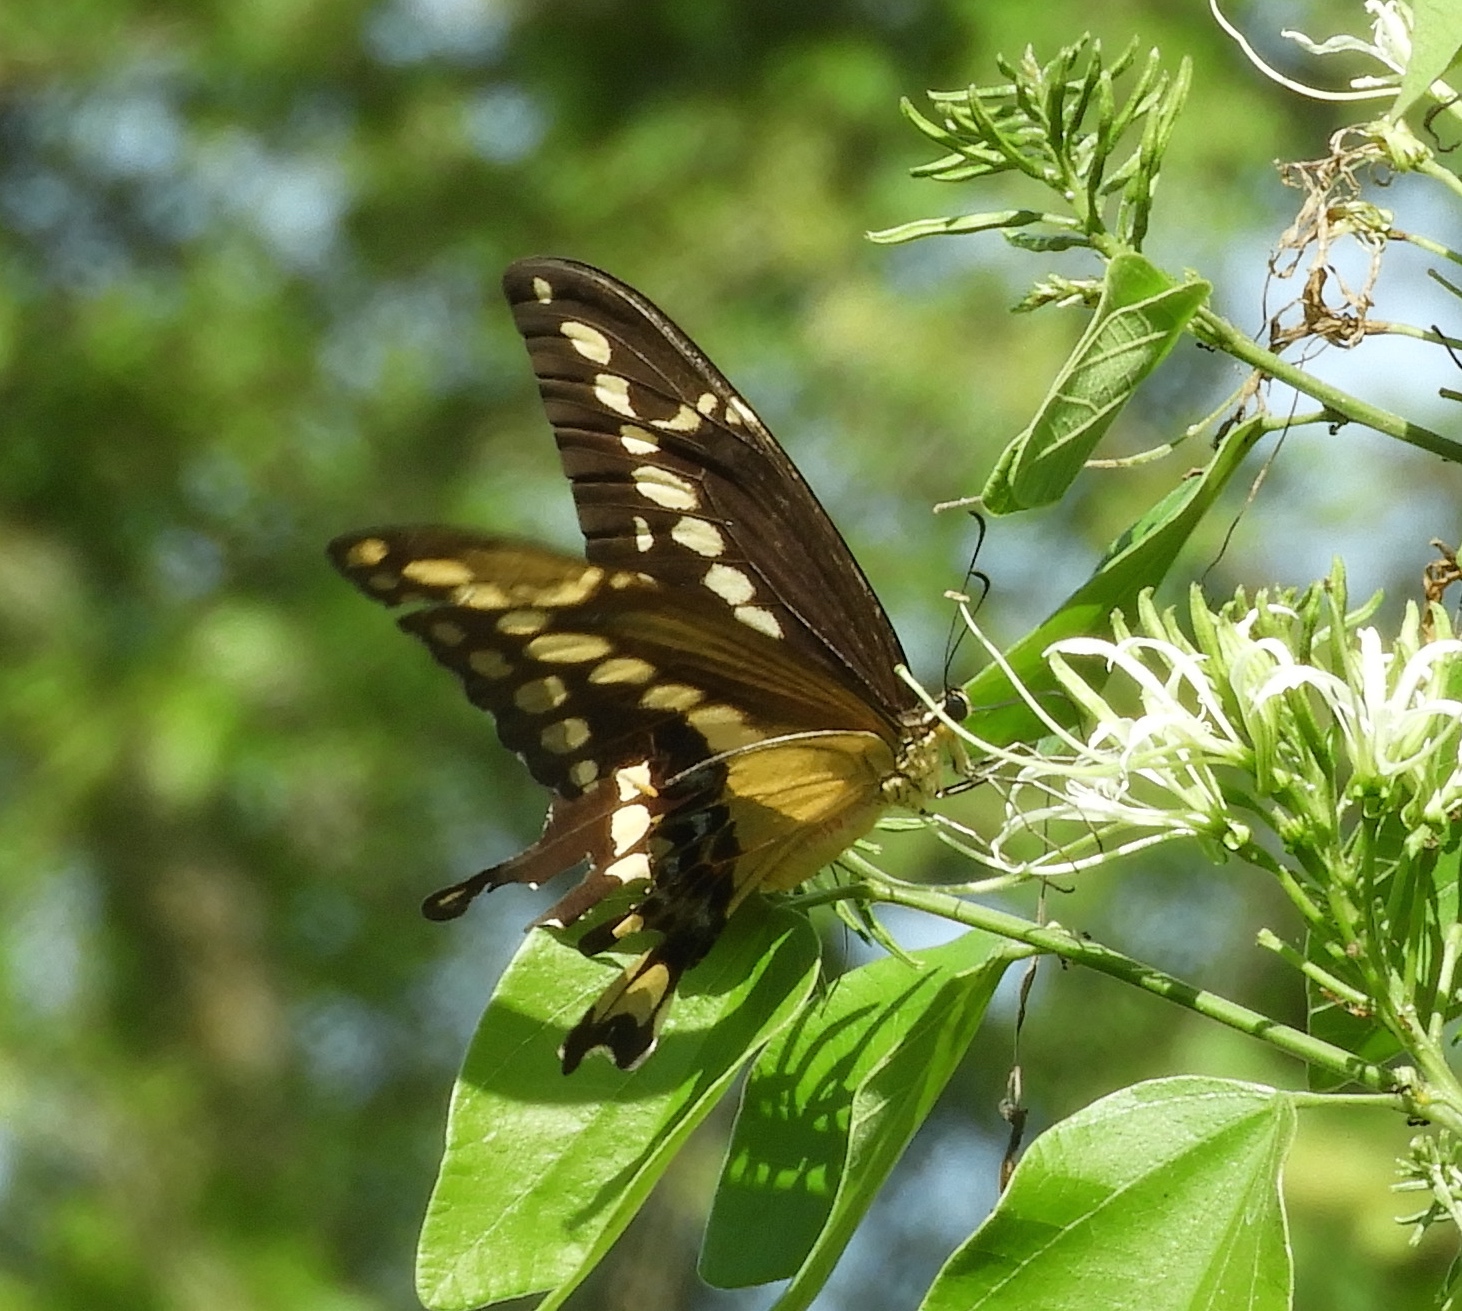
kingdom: Animalia
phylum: Arthropoda
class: Insecta
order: Lepidoptera
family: Papilionidae
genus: Papilio
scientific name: Papilio rumiko
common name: Western giant swallowtail
